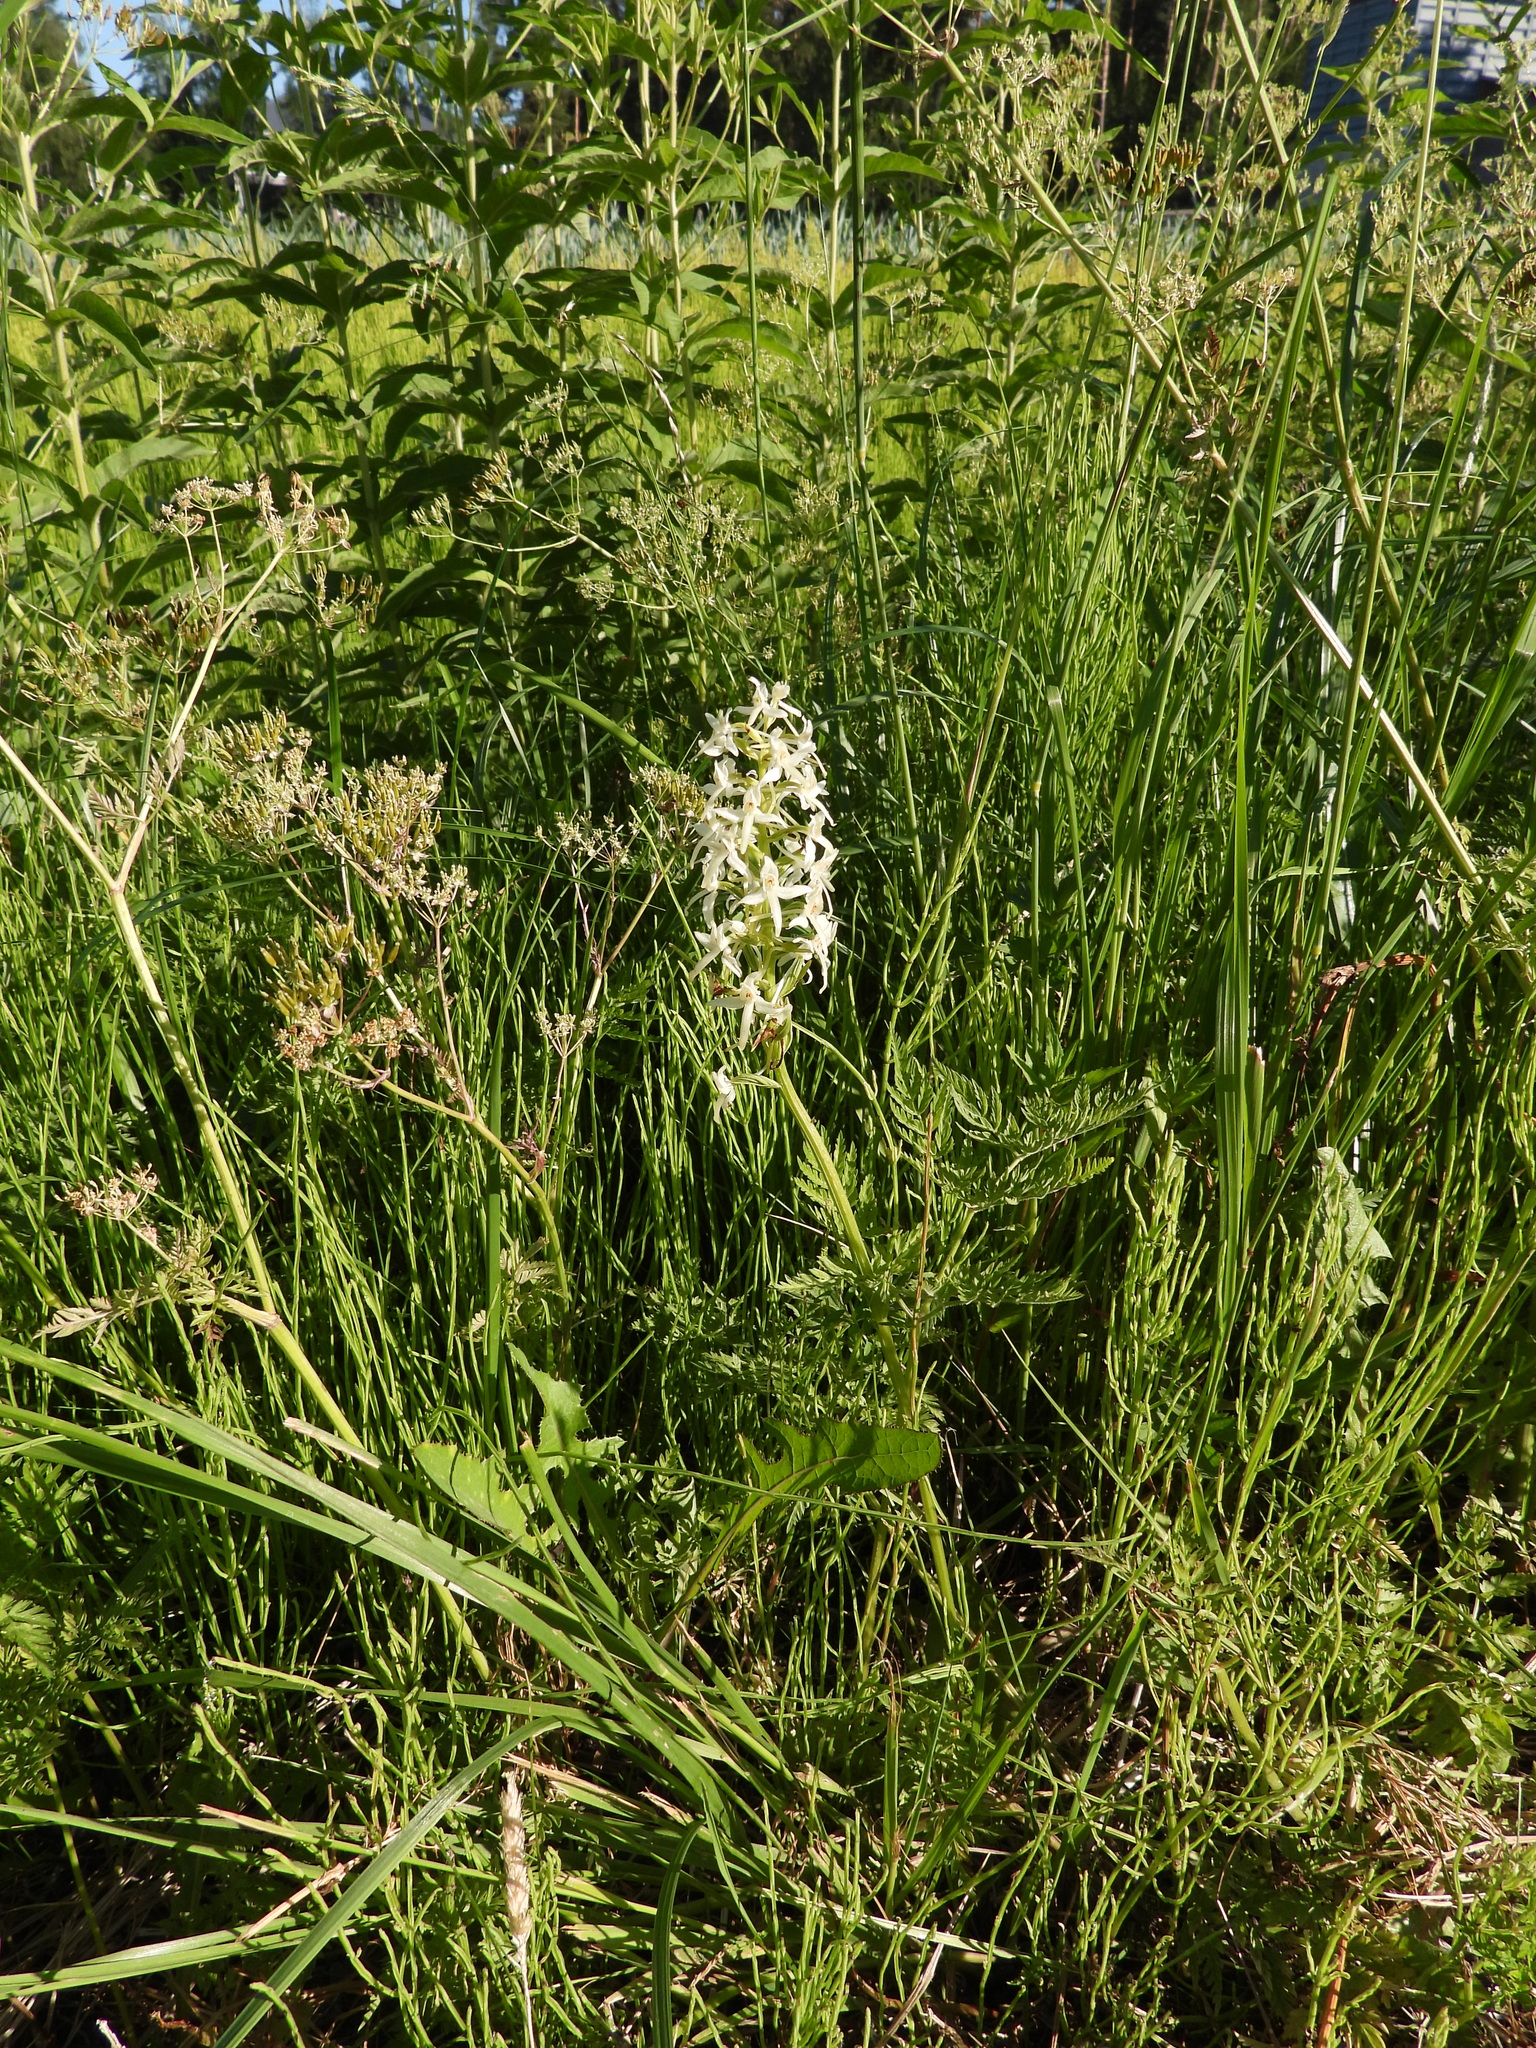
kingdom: Plantae
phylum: Tracheophyta
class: Liliopsida
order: Asparagales
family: Orchidaceae
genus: Platanthera
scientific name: Platanthera bifolia
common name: Lesser butterfly-orchid
